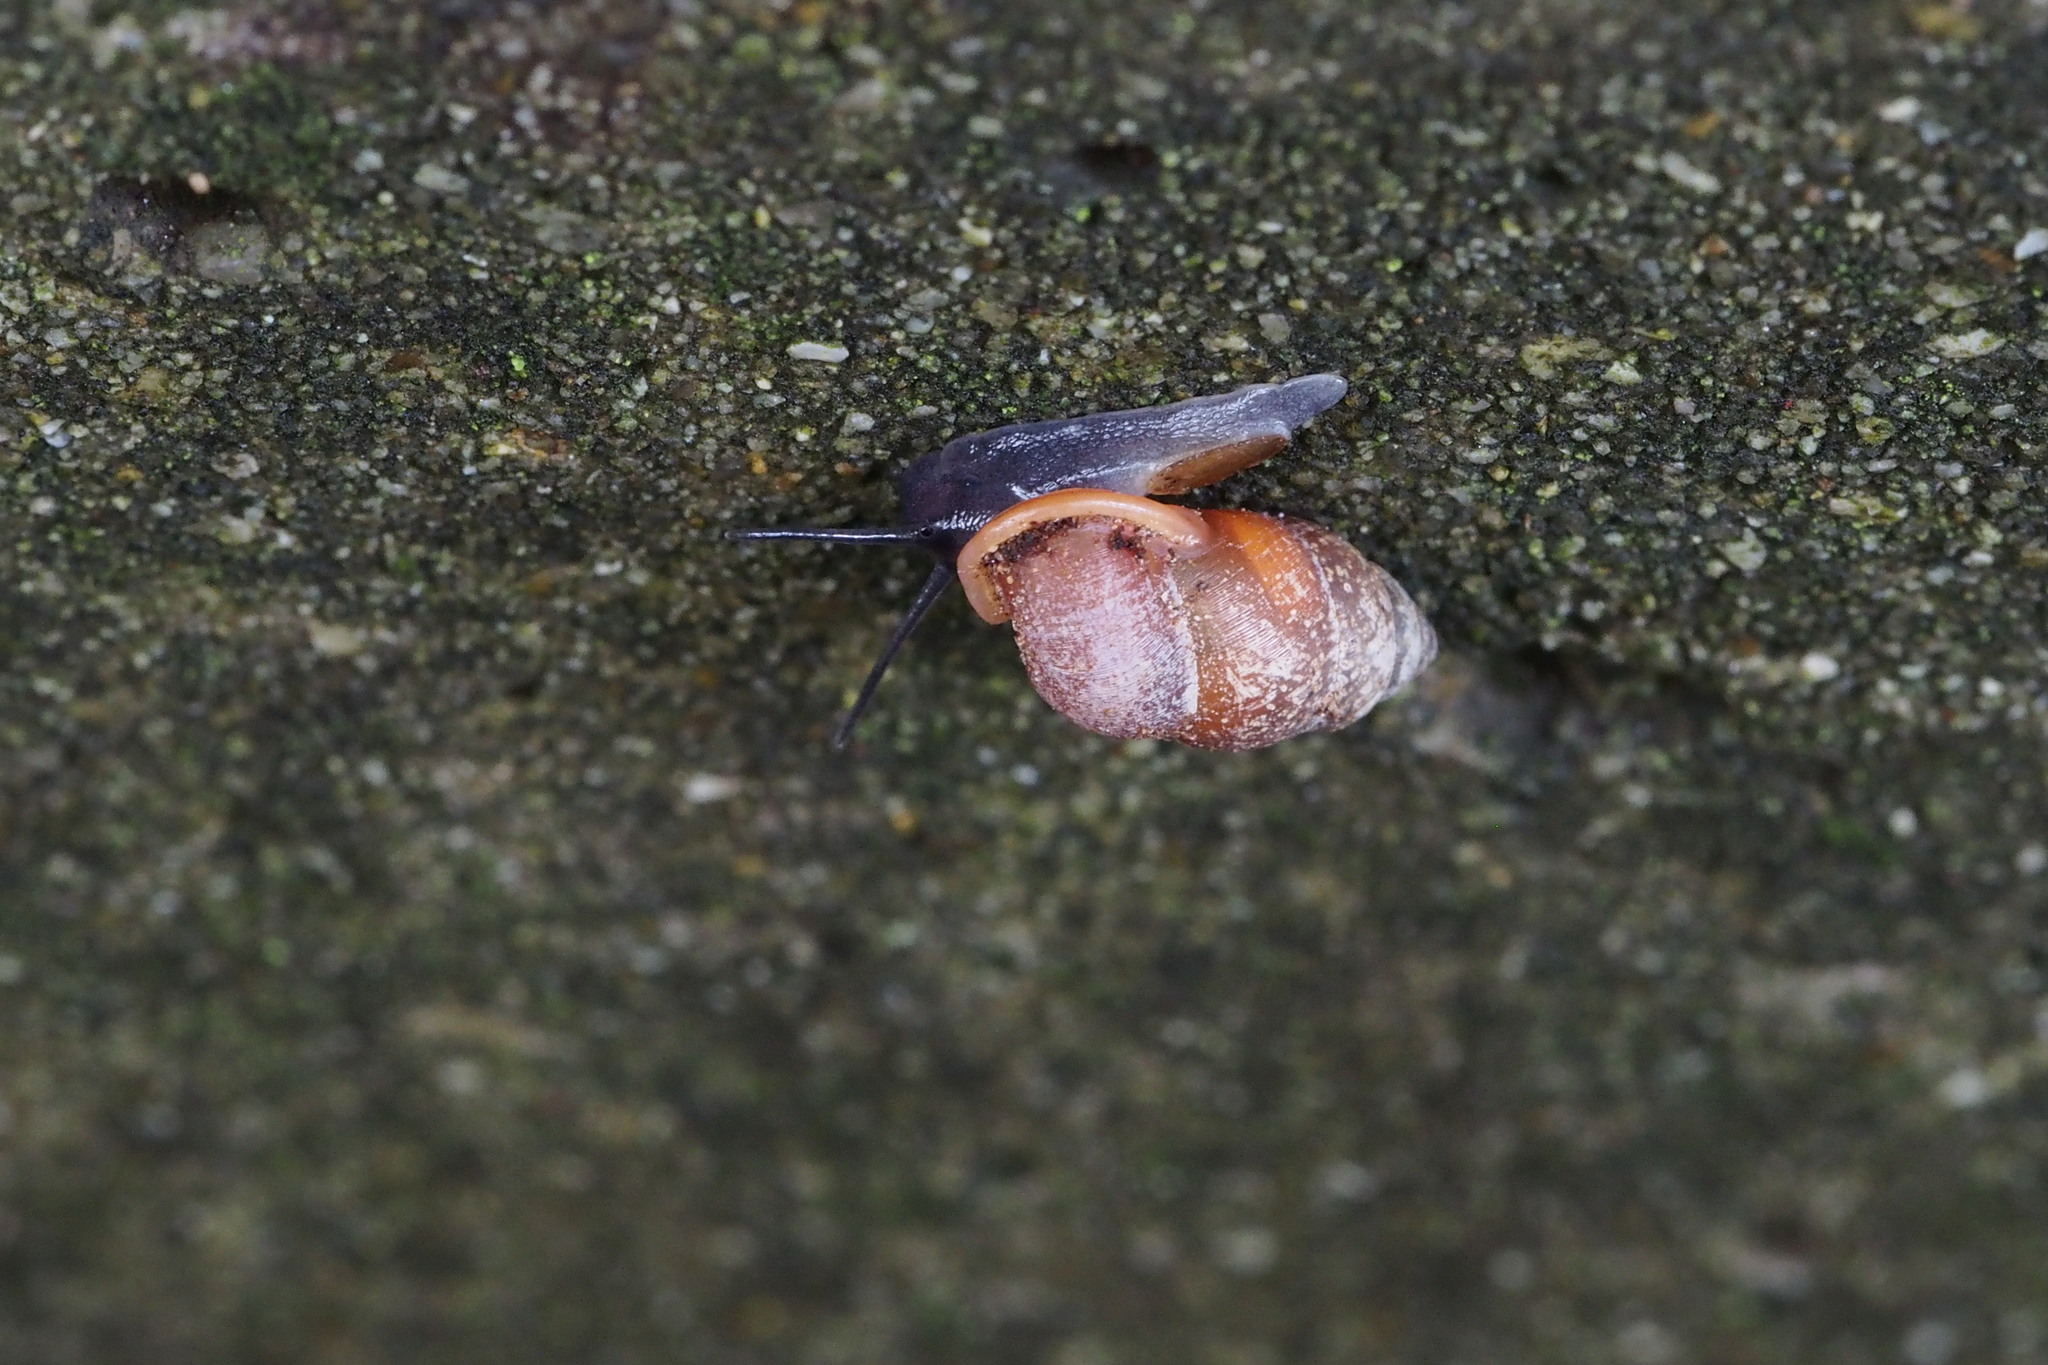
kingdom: Animalia
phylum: Mollusca
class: Gastropoda
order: Architaenioglossa
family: Pupinidae
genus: Pupinella
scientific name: Pupinella rufa
